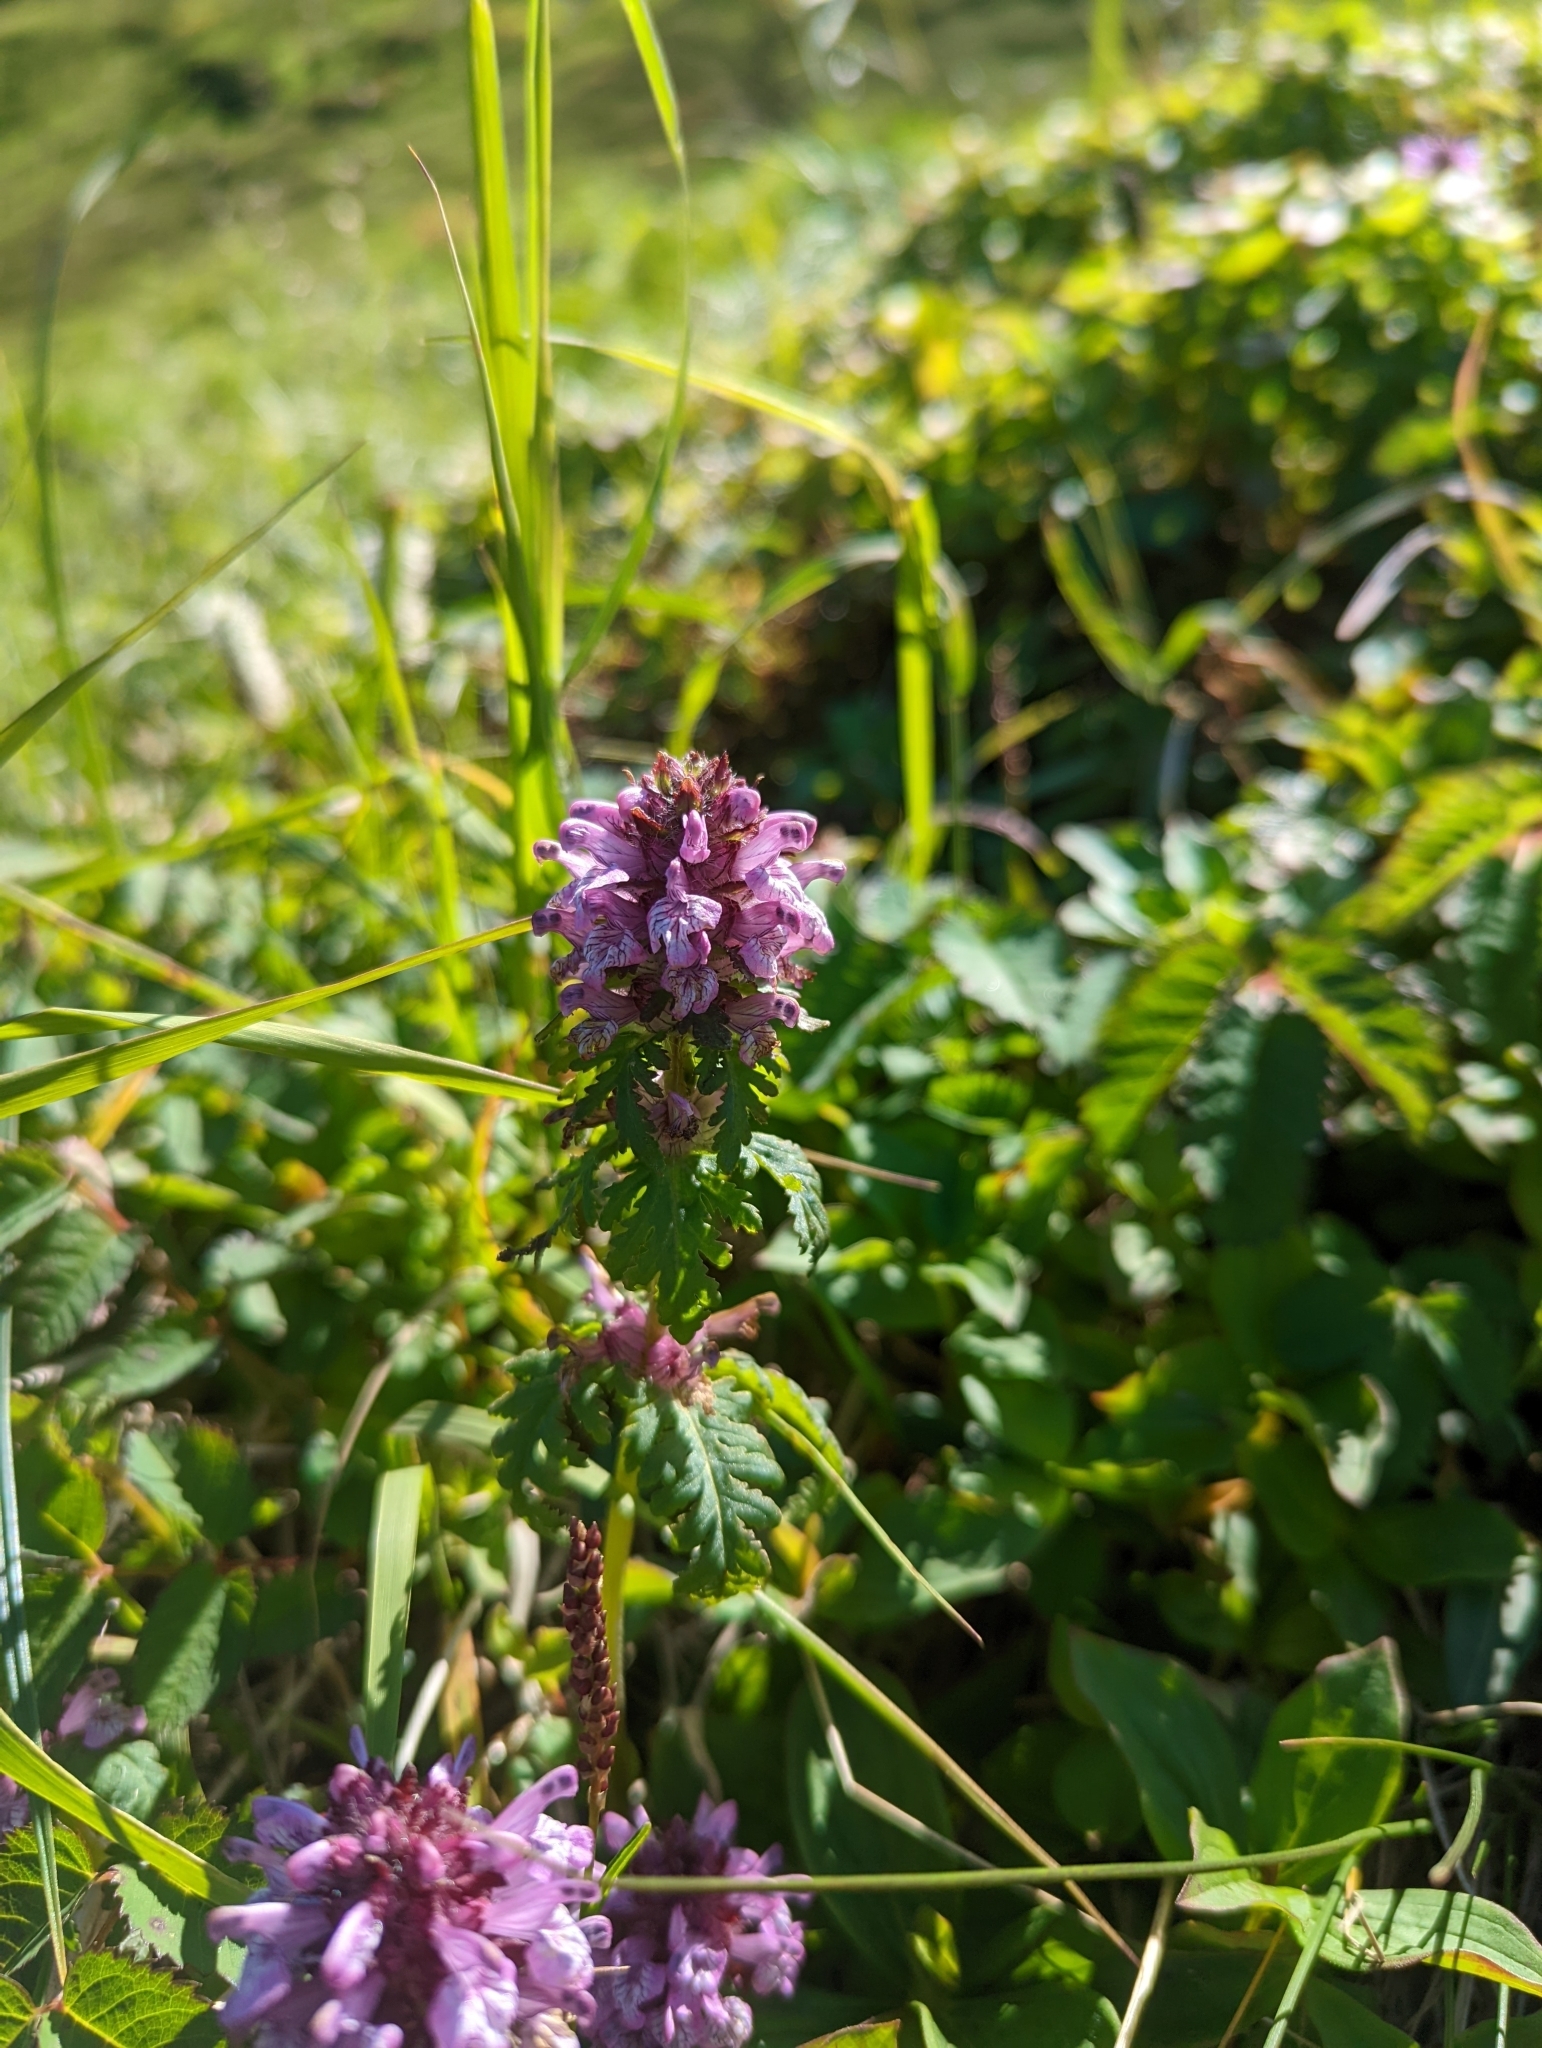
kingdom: Plantae
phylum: Tracheophyta
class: Magnoliopsida
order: Lamiales
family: Orobanchaceae
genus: Pedicularis
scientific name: Pedicularis verticillata
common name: Whorled lousewort
